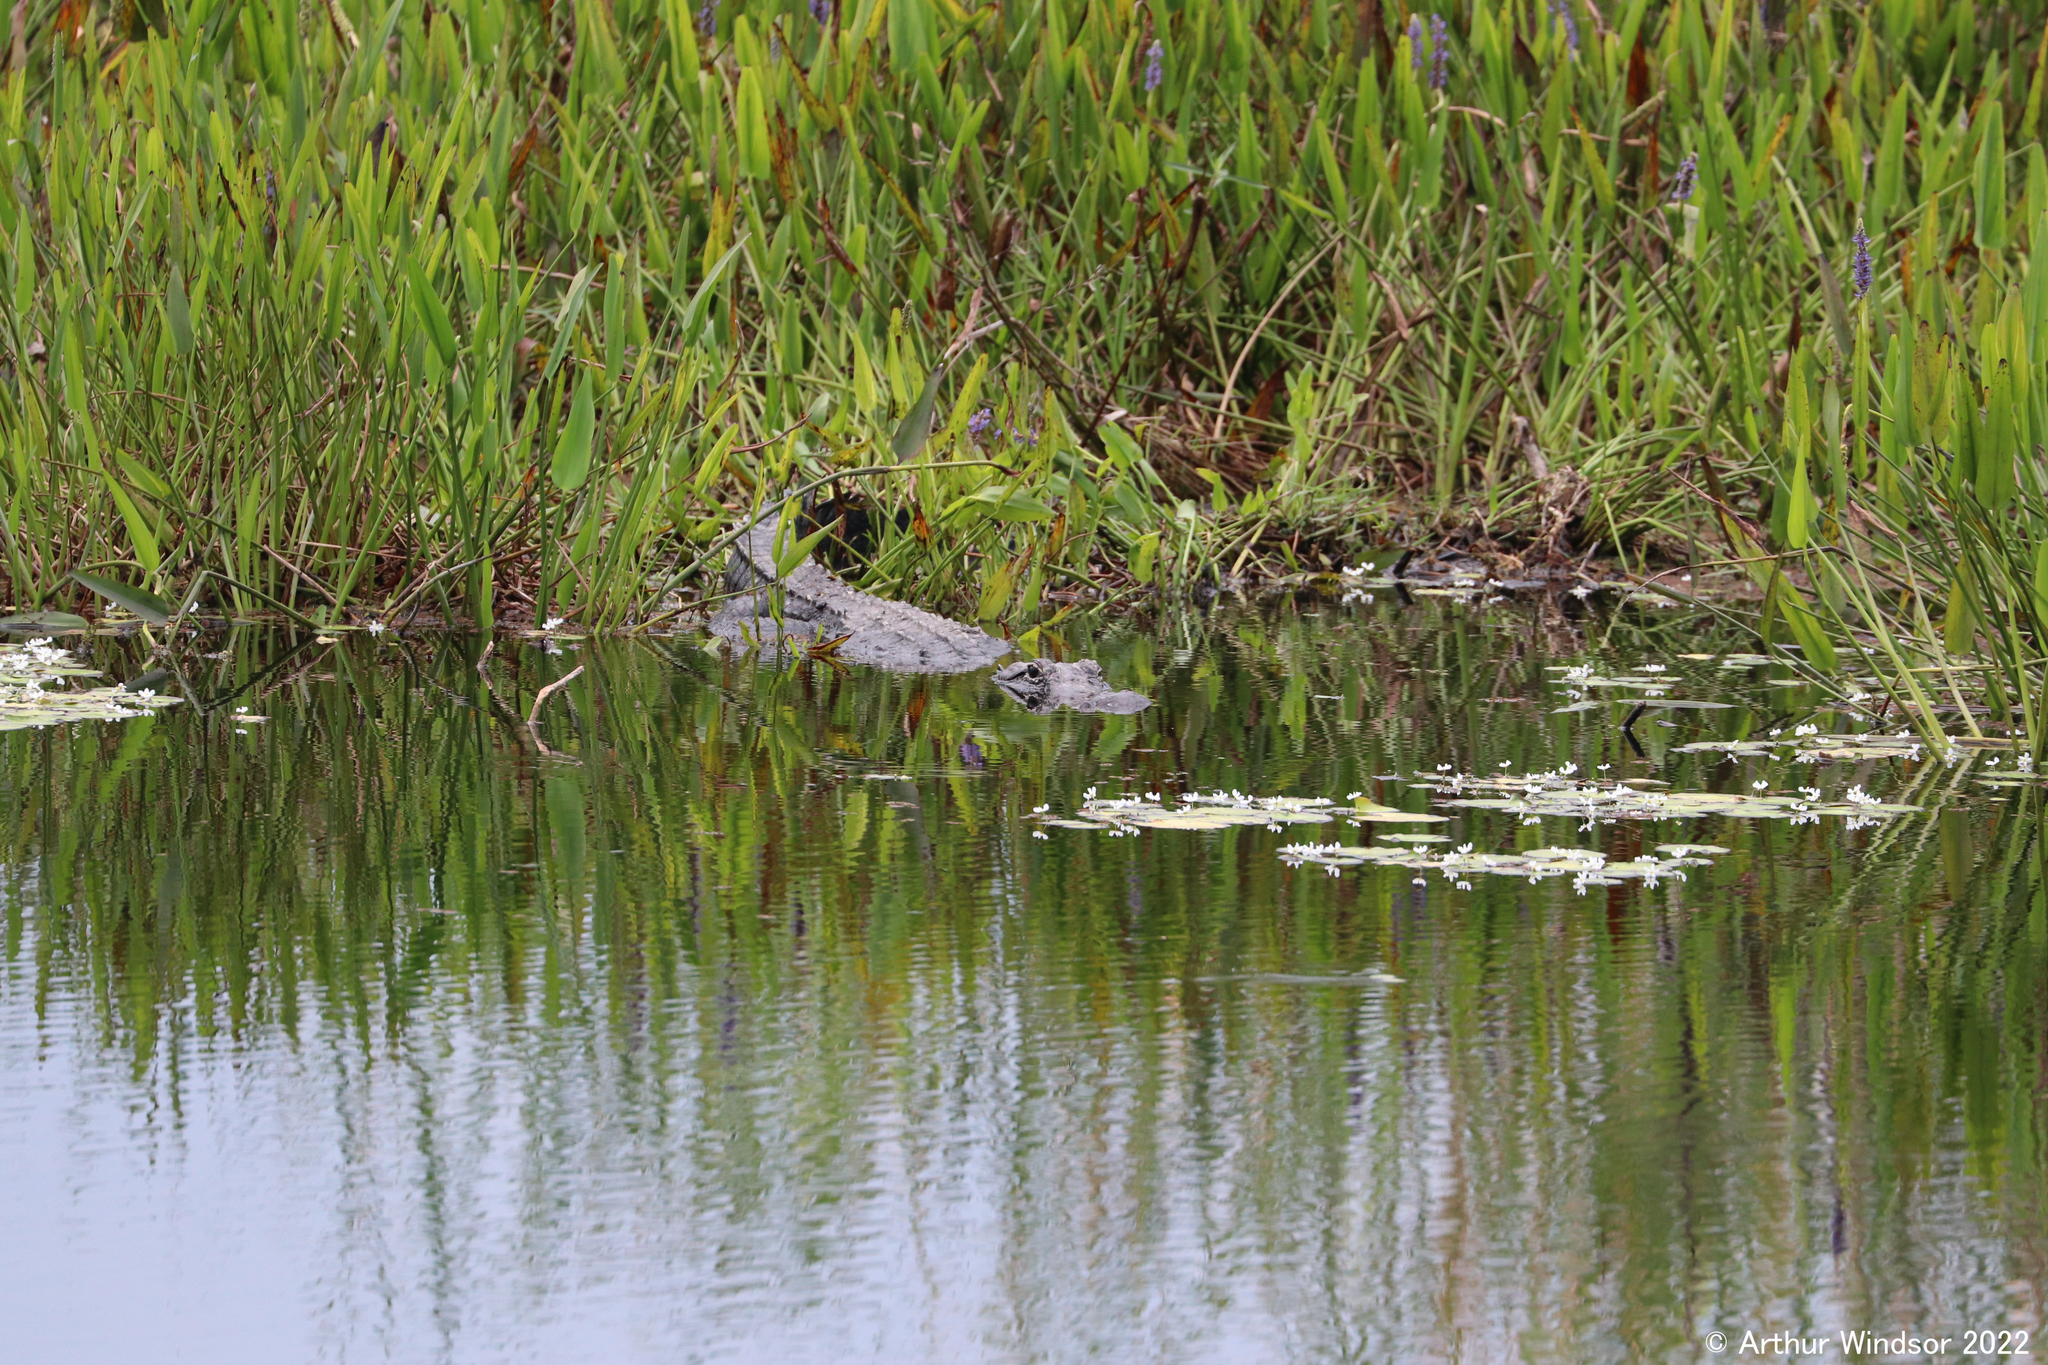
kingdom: Animalia
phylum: Chordata
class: Crocodylia
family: Alligatoridae
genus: Alligator
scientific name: Alligator mississippiensis
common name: American alligator
